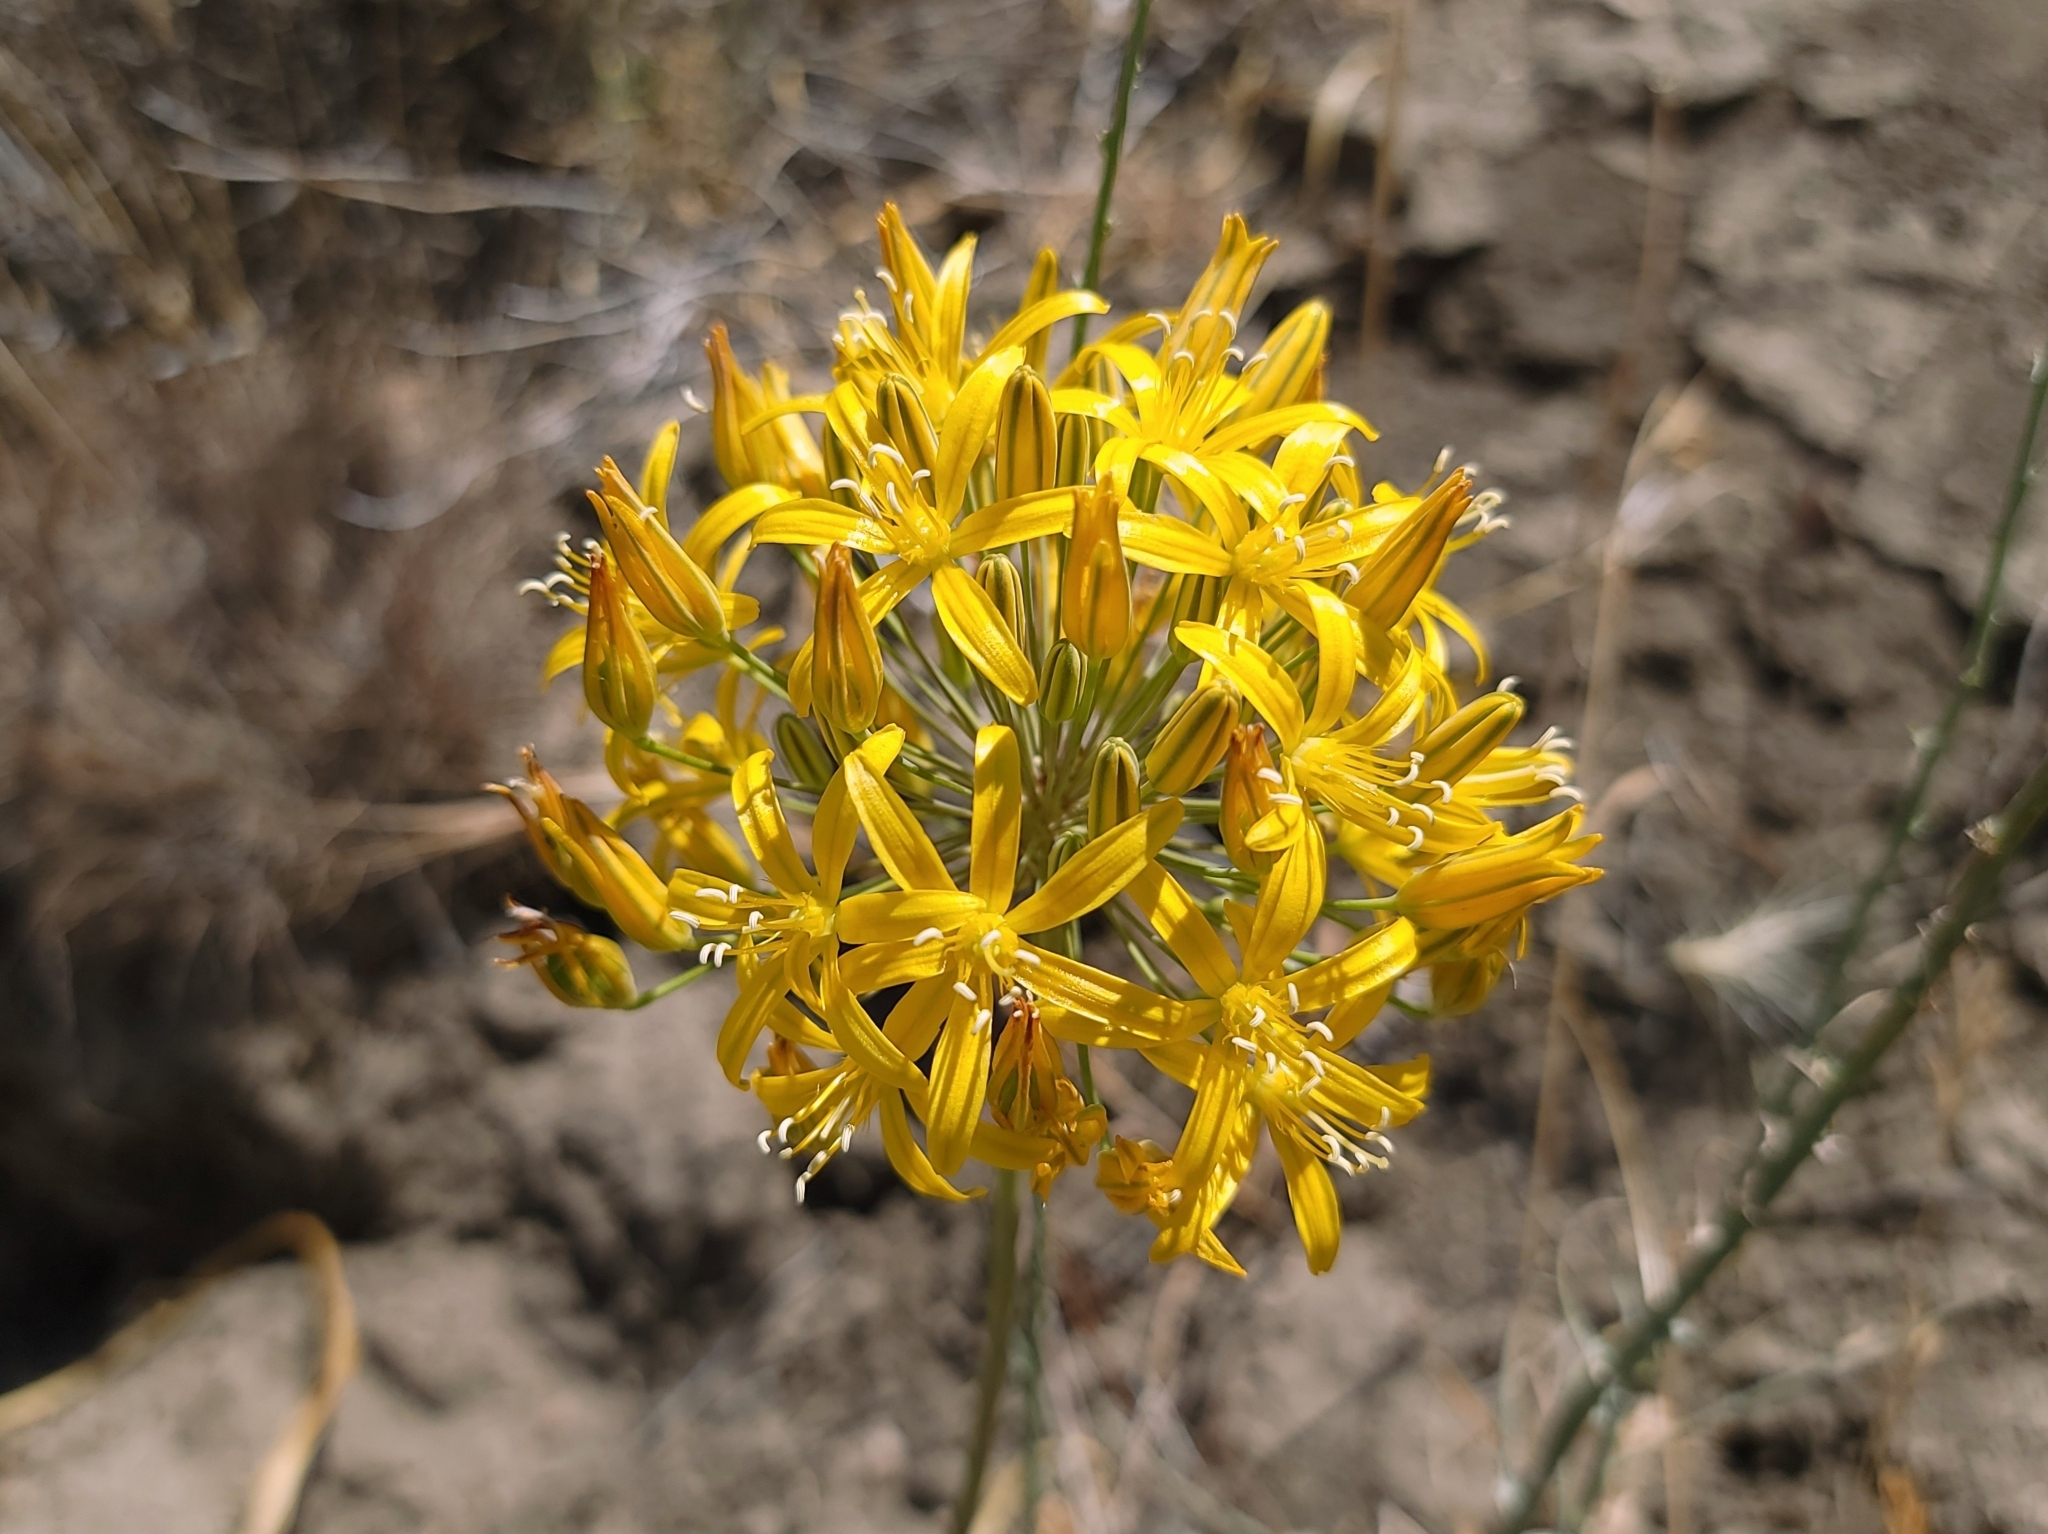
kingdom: Plantae
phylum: Tracheophyta
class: Liliopsida
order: Asparagales
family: Asparagaceae
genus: Bloomeria
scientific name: Bloomeria crocea
